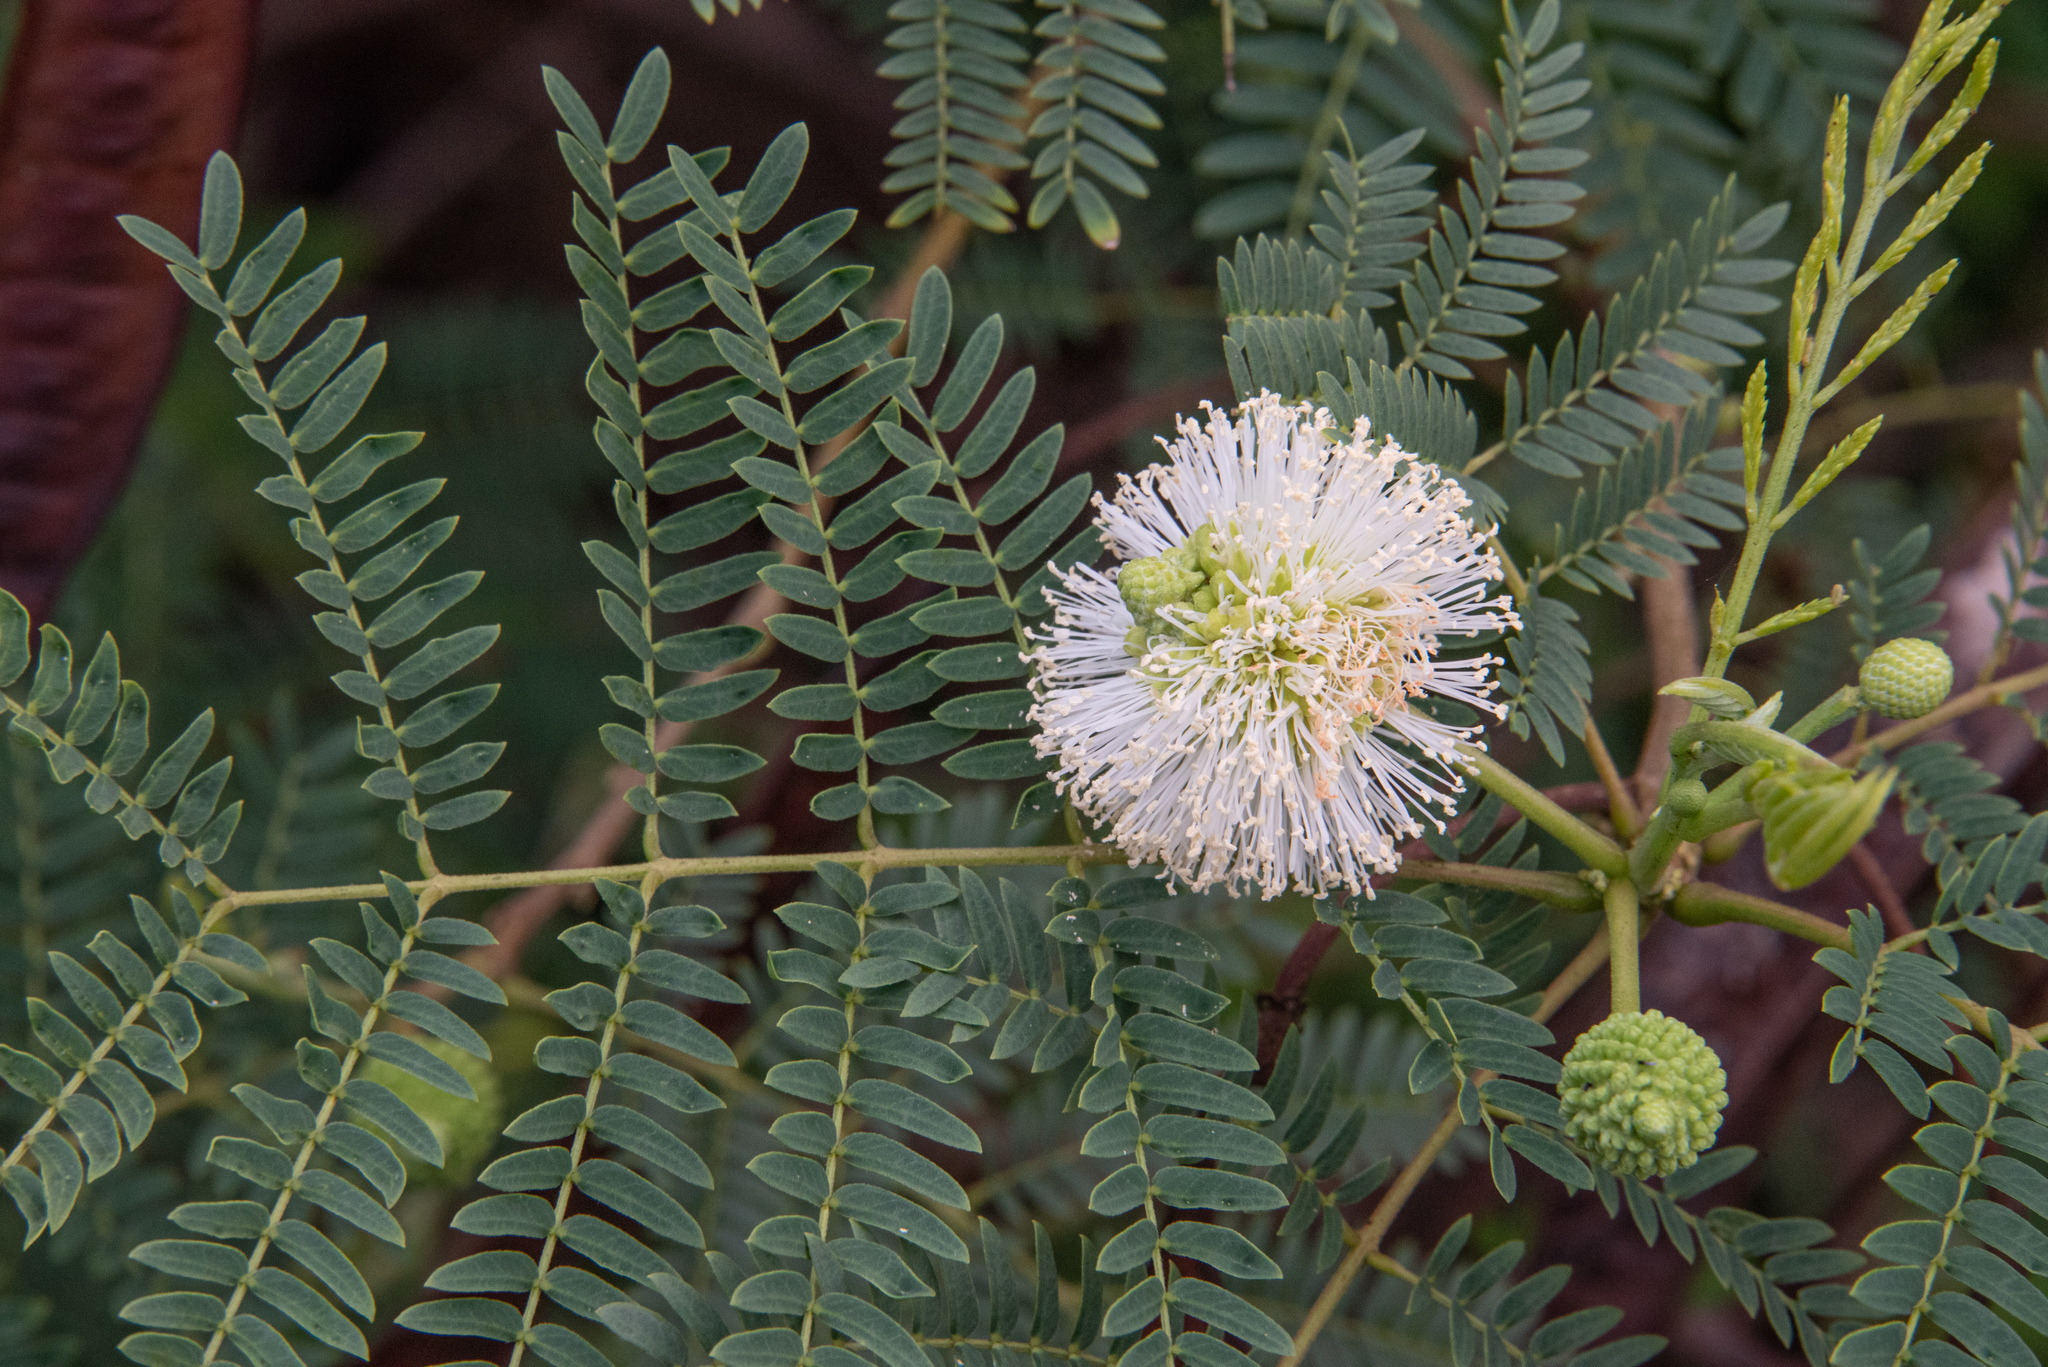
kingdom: Plantae
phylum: Tracheophyta
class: Magnoliopsida
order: Fabales
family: Fabaceae
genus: Leucaena
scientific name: Leucaena leucocephala
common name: White leadtree
